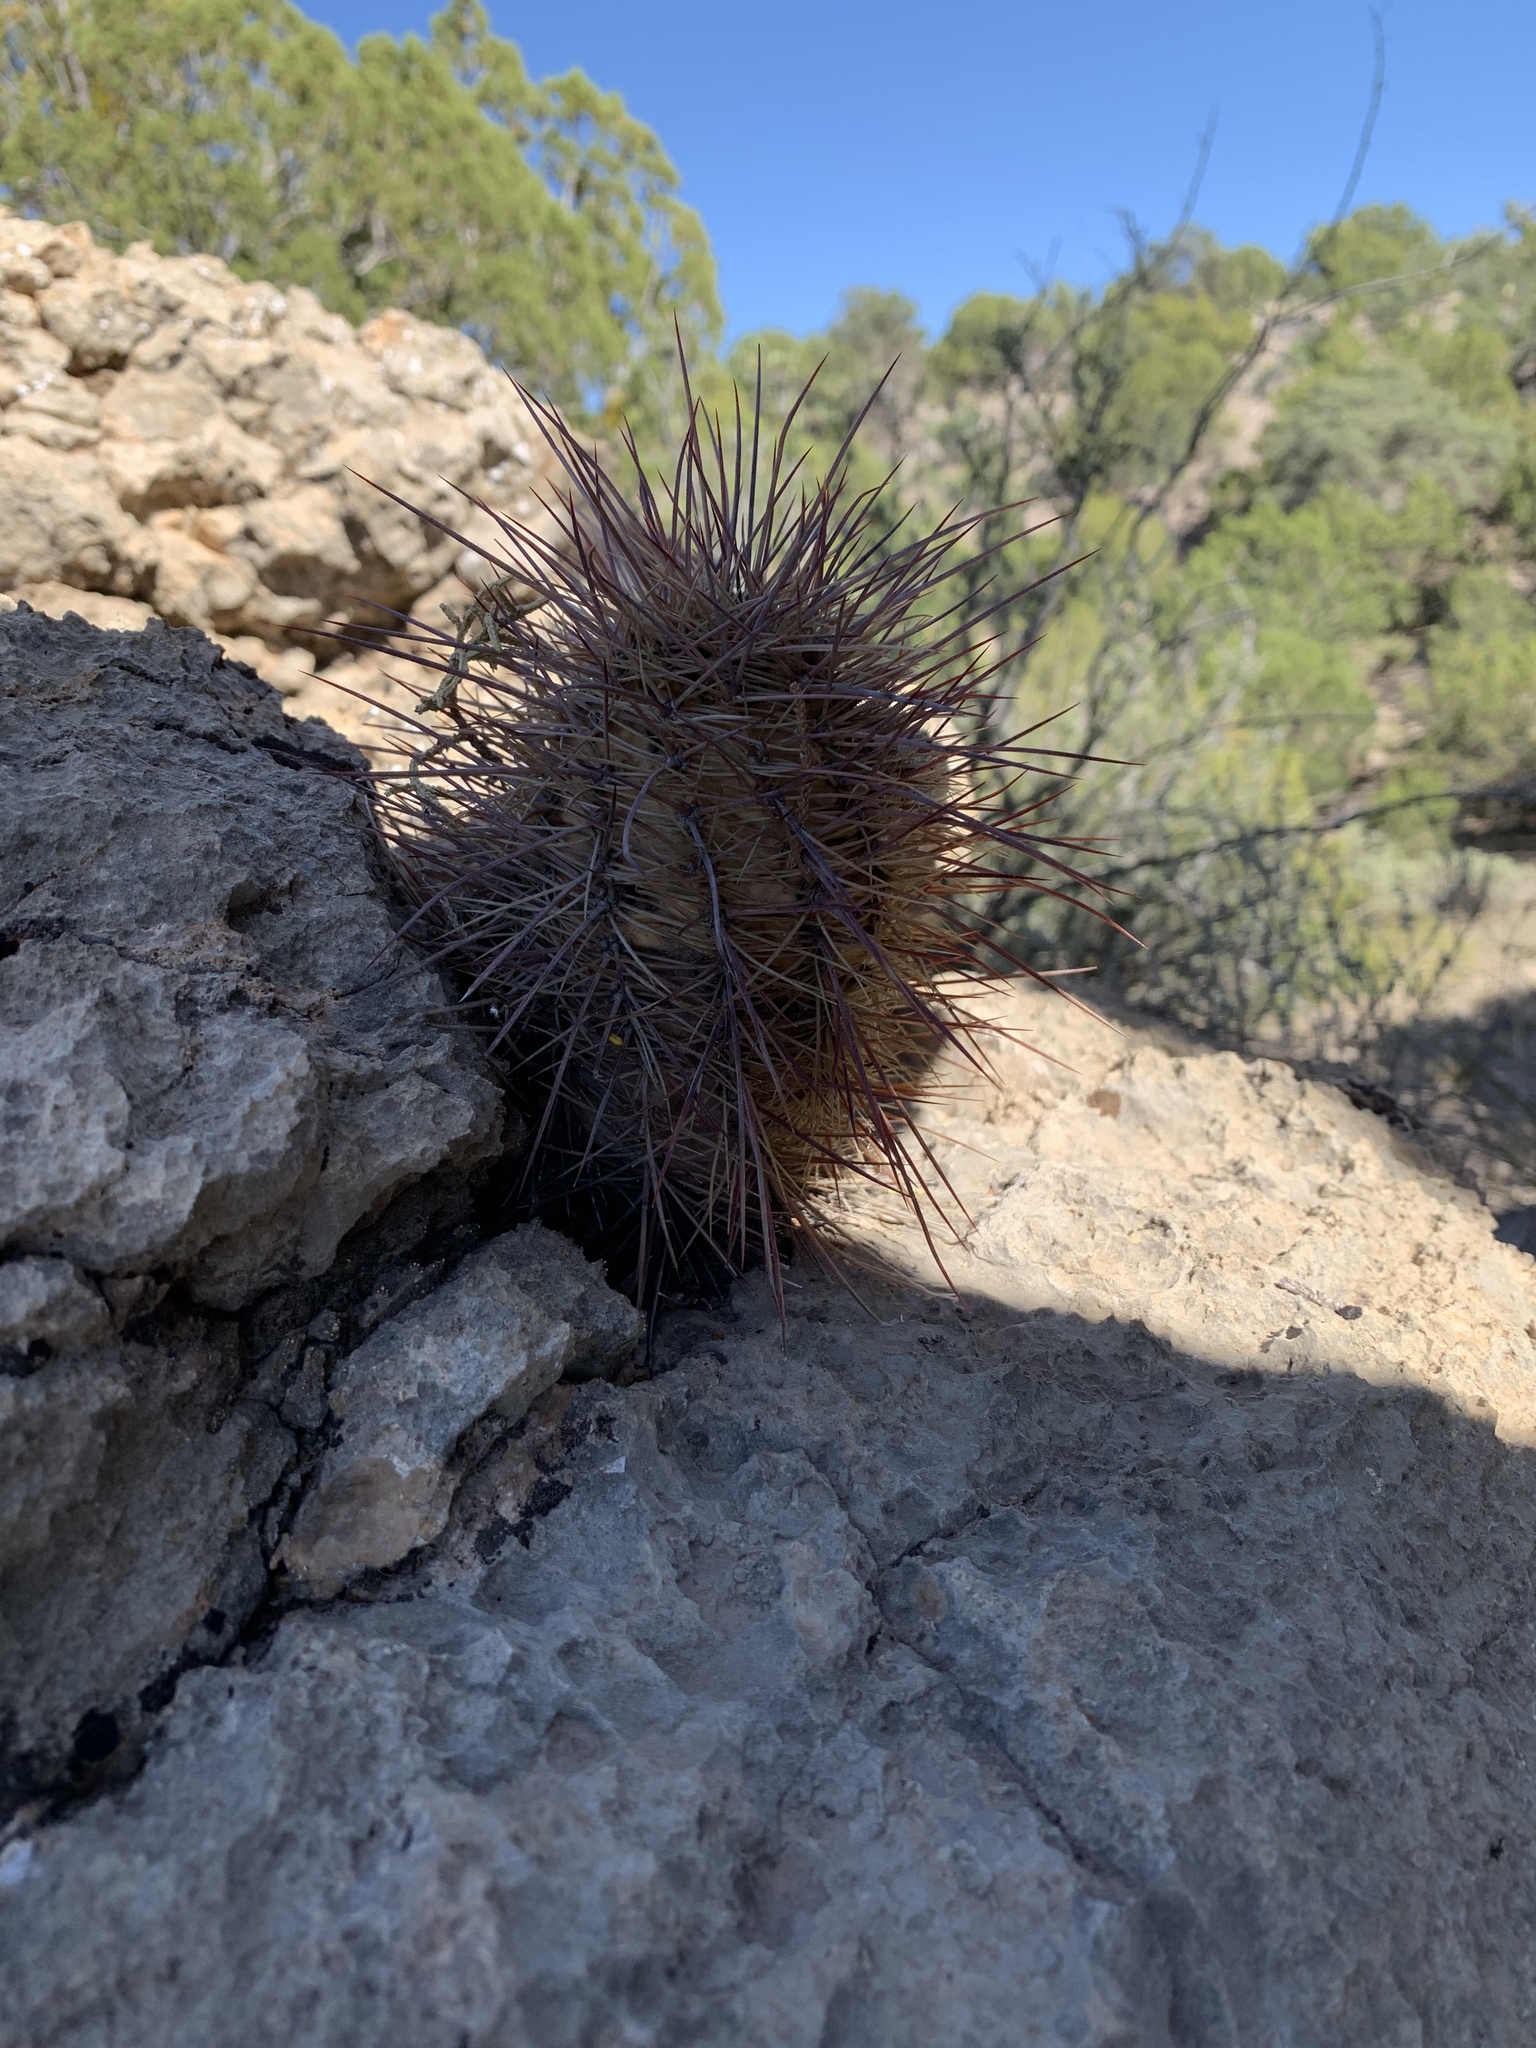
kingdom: Plantae
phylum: Tracheophyta
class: Magnoliopsida
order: Caryophyllales
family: Cactaceae
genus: Echinocereus
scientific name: Echinocereus coccineus
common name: Scarlet hedgehog cactus
